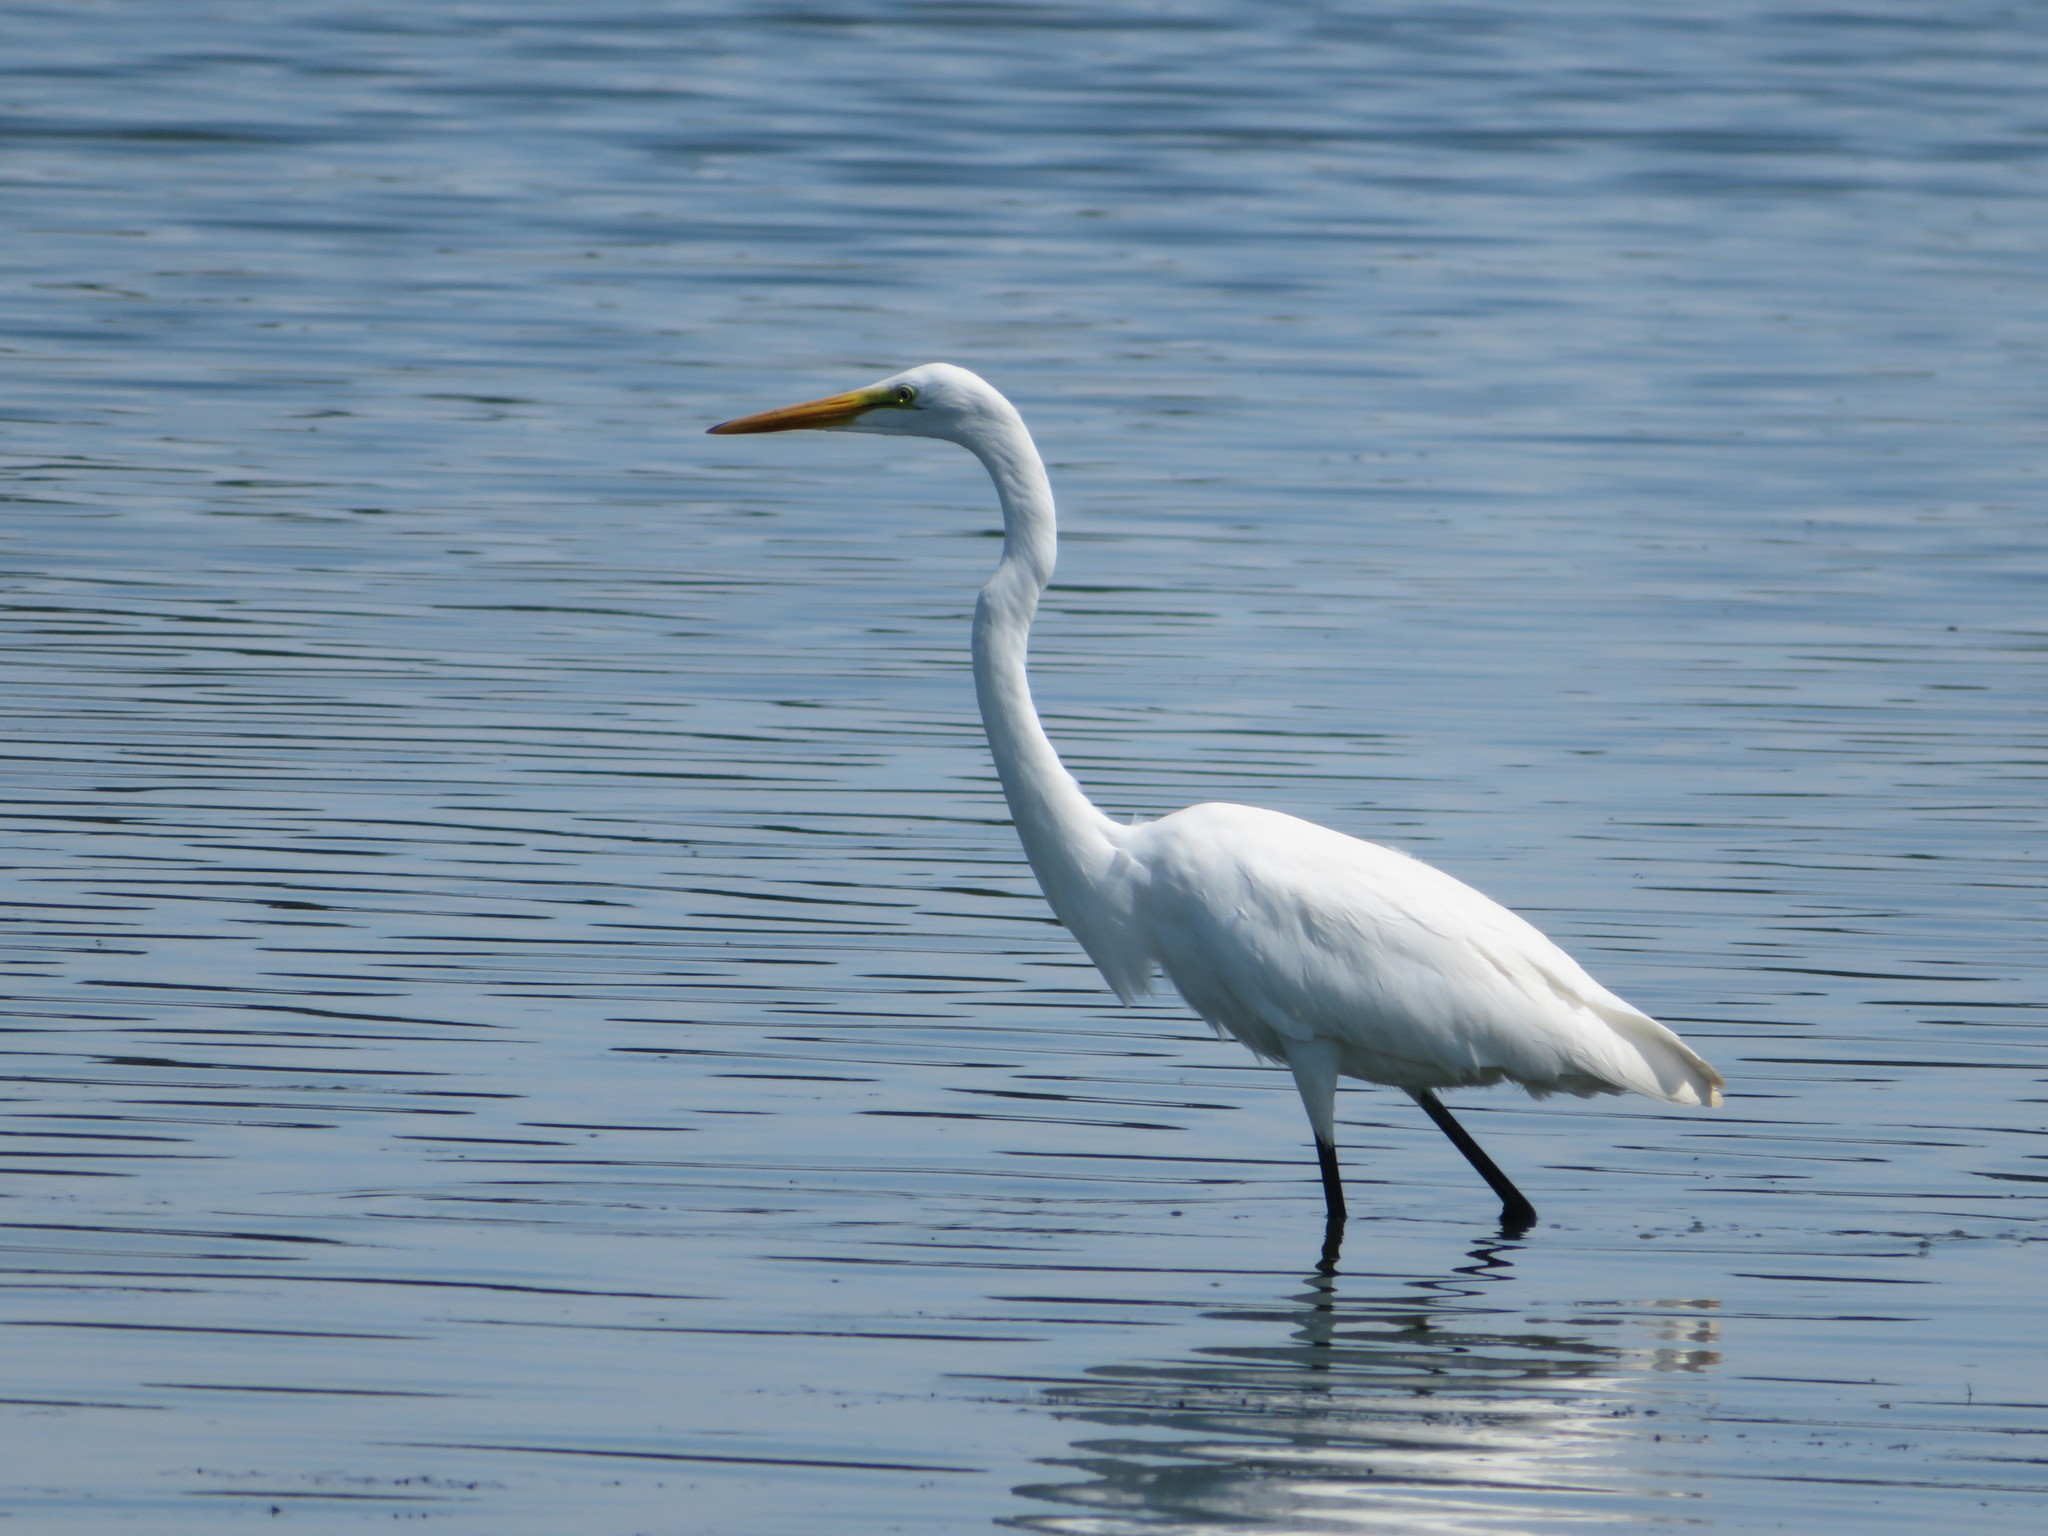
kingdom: Animalia
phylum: Chordata
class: Aves
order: Pelecaniformes
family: Ardeidae
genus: Ardea
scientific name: Ardea alba
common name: Great egret
